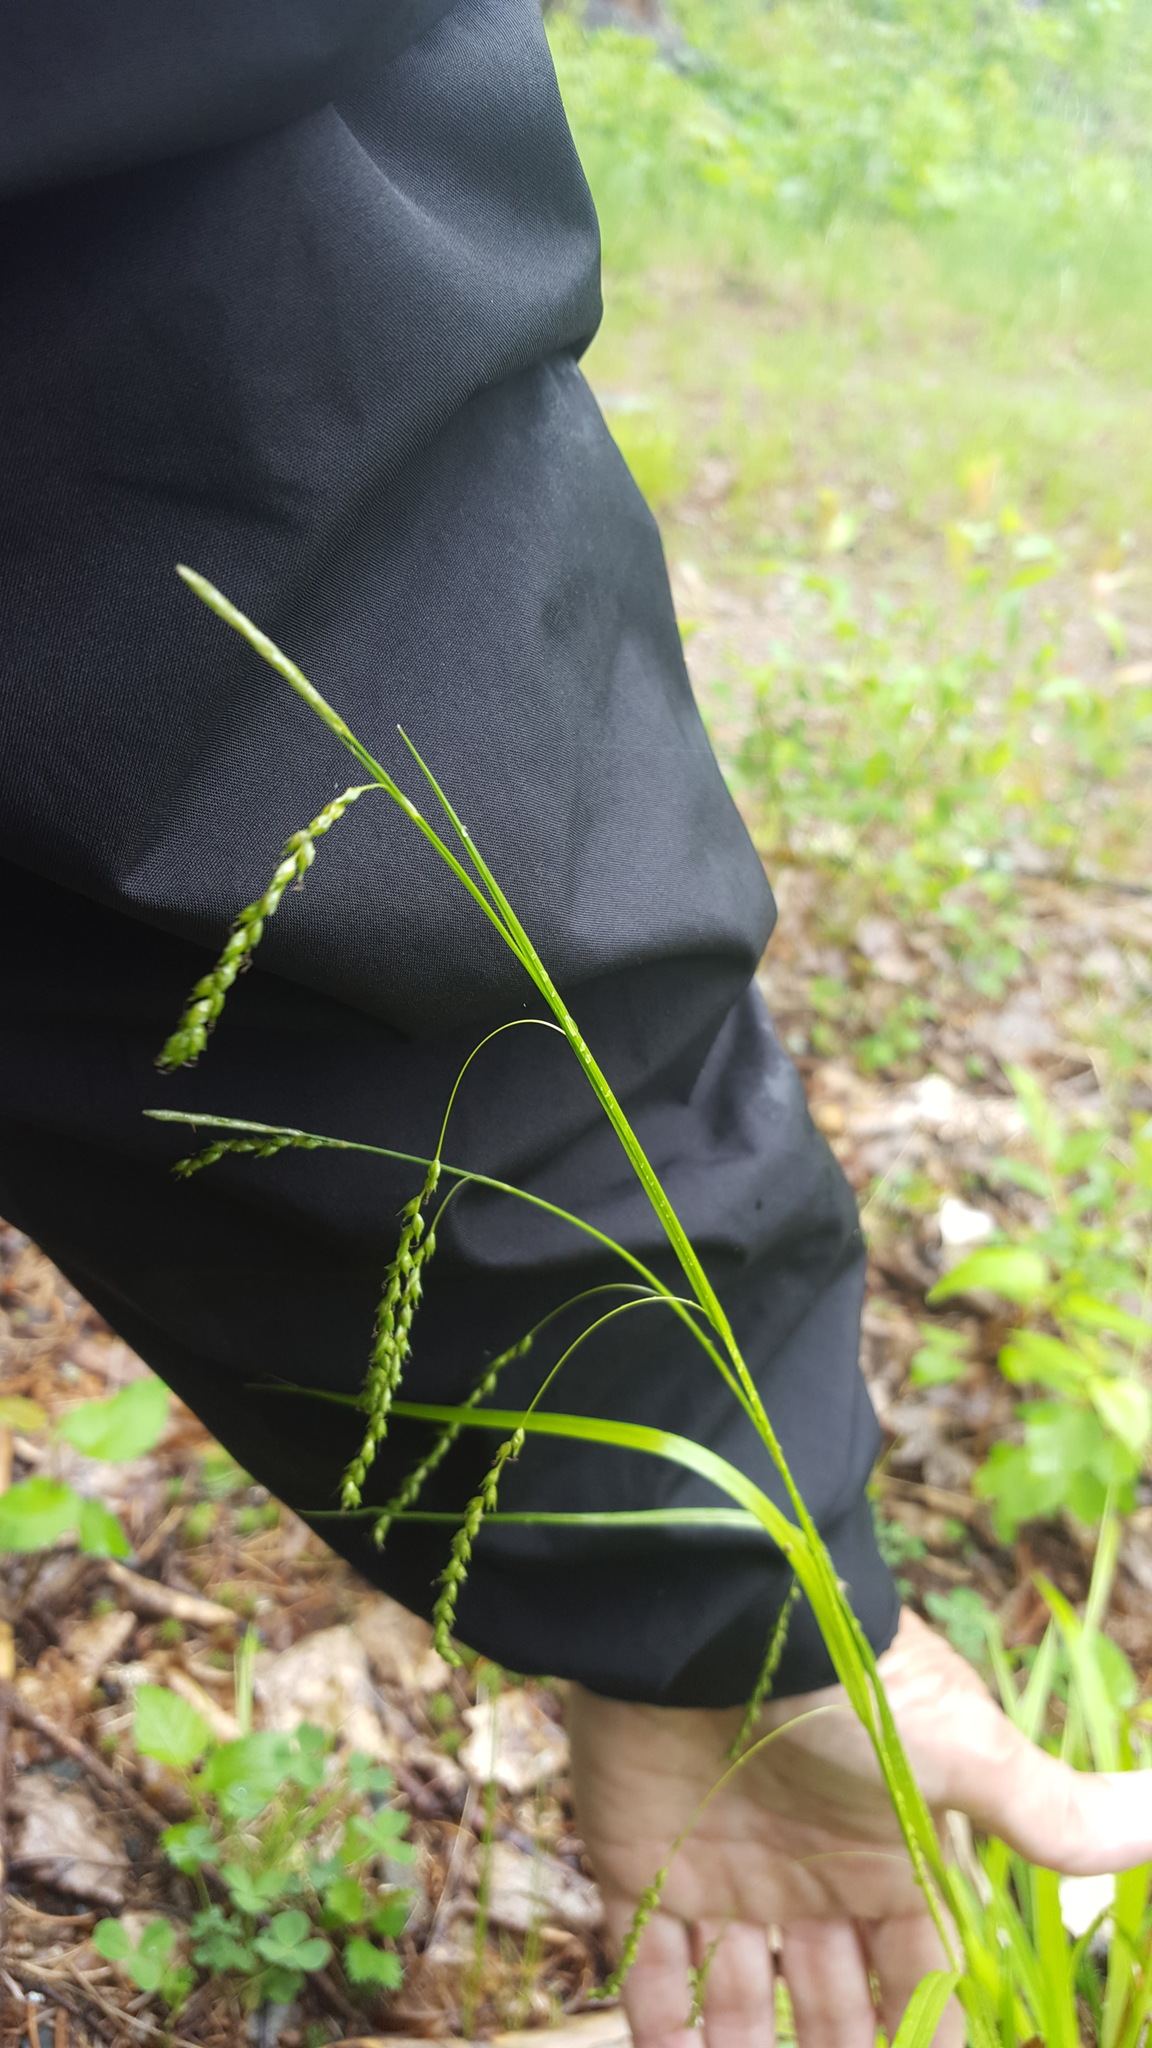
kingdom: Plantae
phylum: Tracheophyta
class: Liliopsida
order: Poales
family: Cyperaceae
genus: Carex
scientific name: Carex arctata
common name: Black sedge
